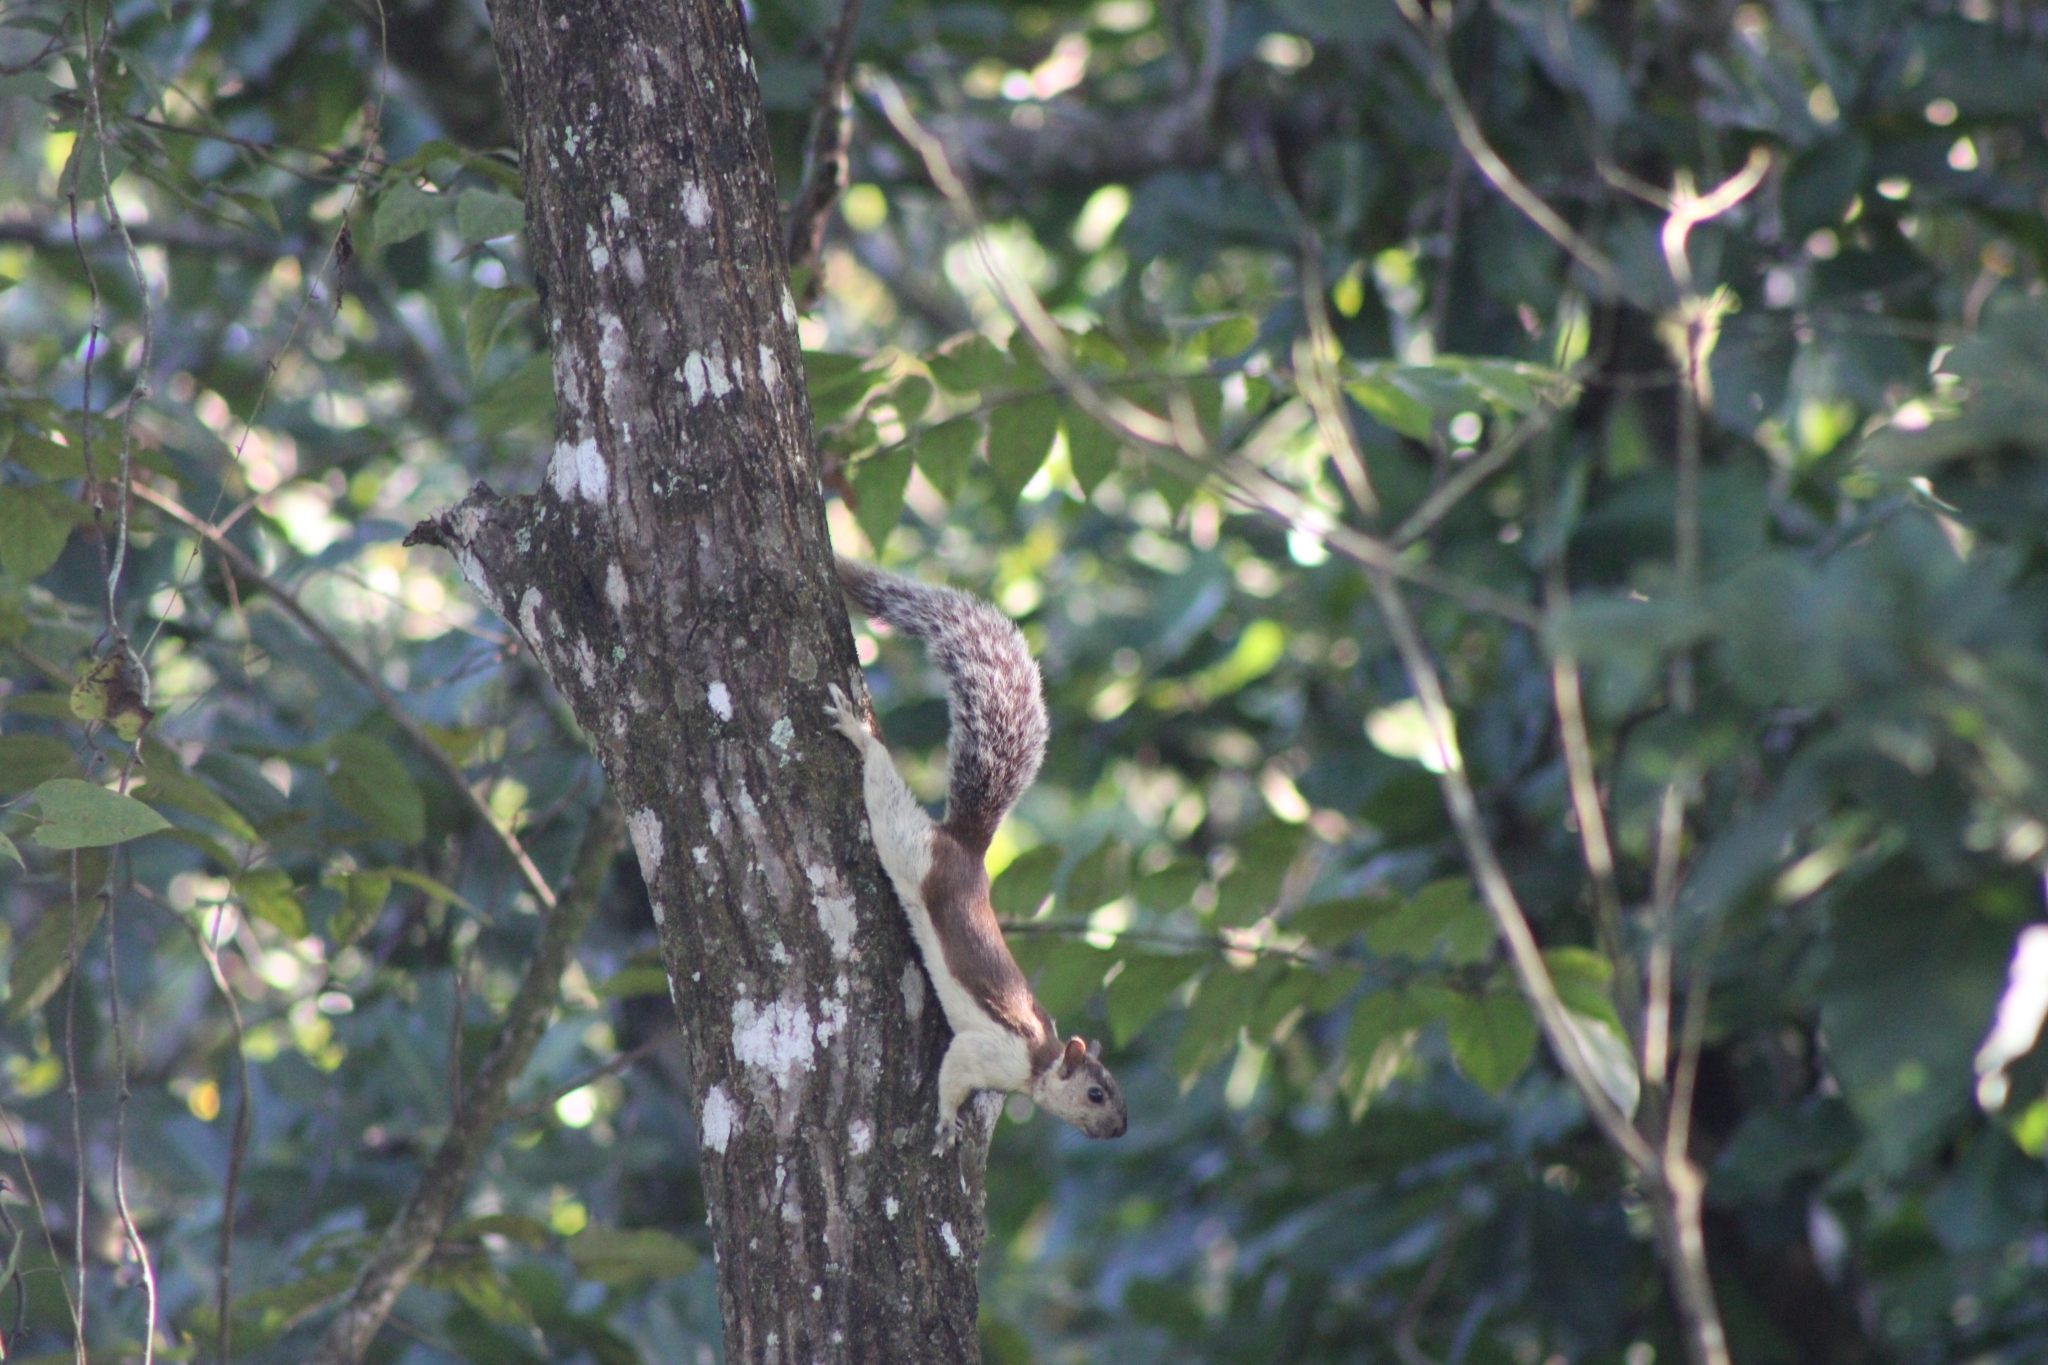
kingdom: Animalia
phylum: Chordata
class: Mammalia
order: Rodentia
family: Sciuridae
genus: Sciurus
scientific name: Sciurus variegatoides
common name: Variegated squirrel
